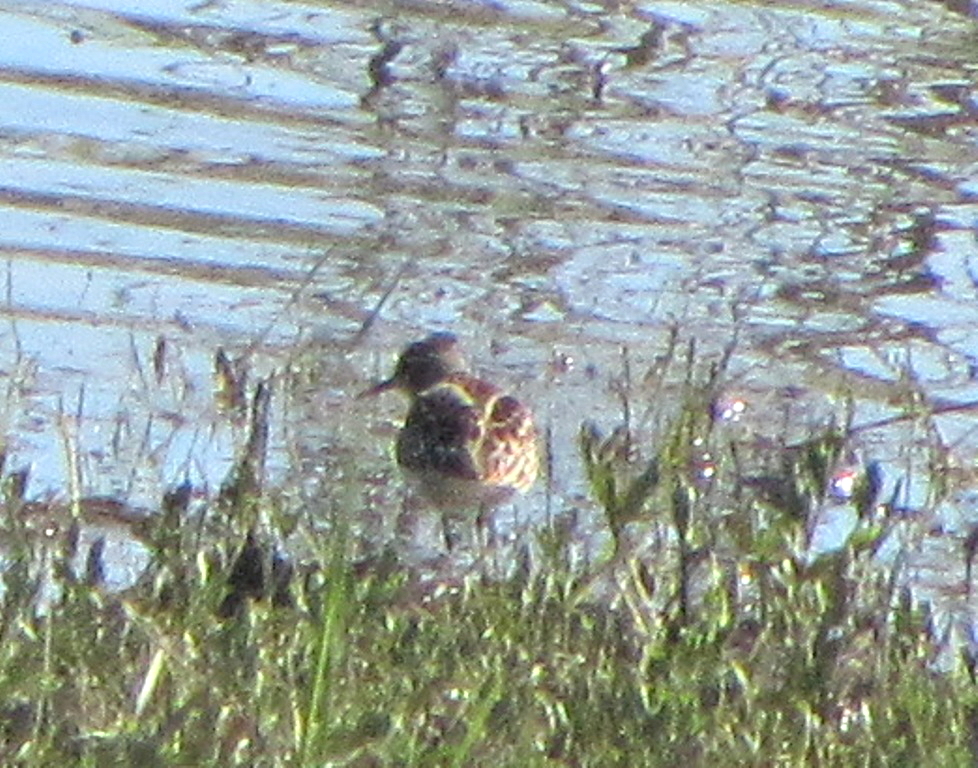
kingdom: Animalia
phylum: Chordata
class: Aves
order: Charadriiformes
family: Scolopacidae
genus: Calidris
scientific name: Calidris minuta
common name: Little stint
